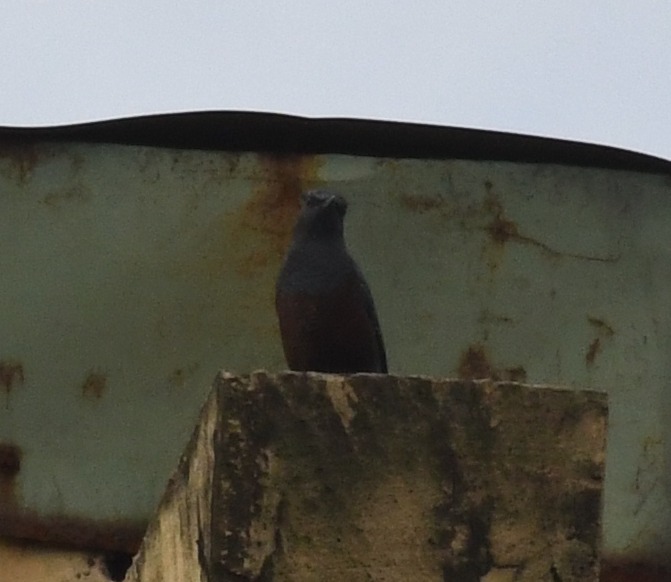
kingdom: Animalia
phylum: Chordata
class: Aves
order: Passeriformes
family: Muscicapidae
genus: Monticola
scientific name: Monticola solitarius
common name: Blue rock thrush
